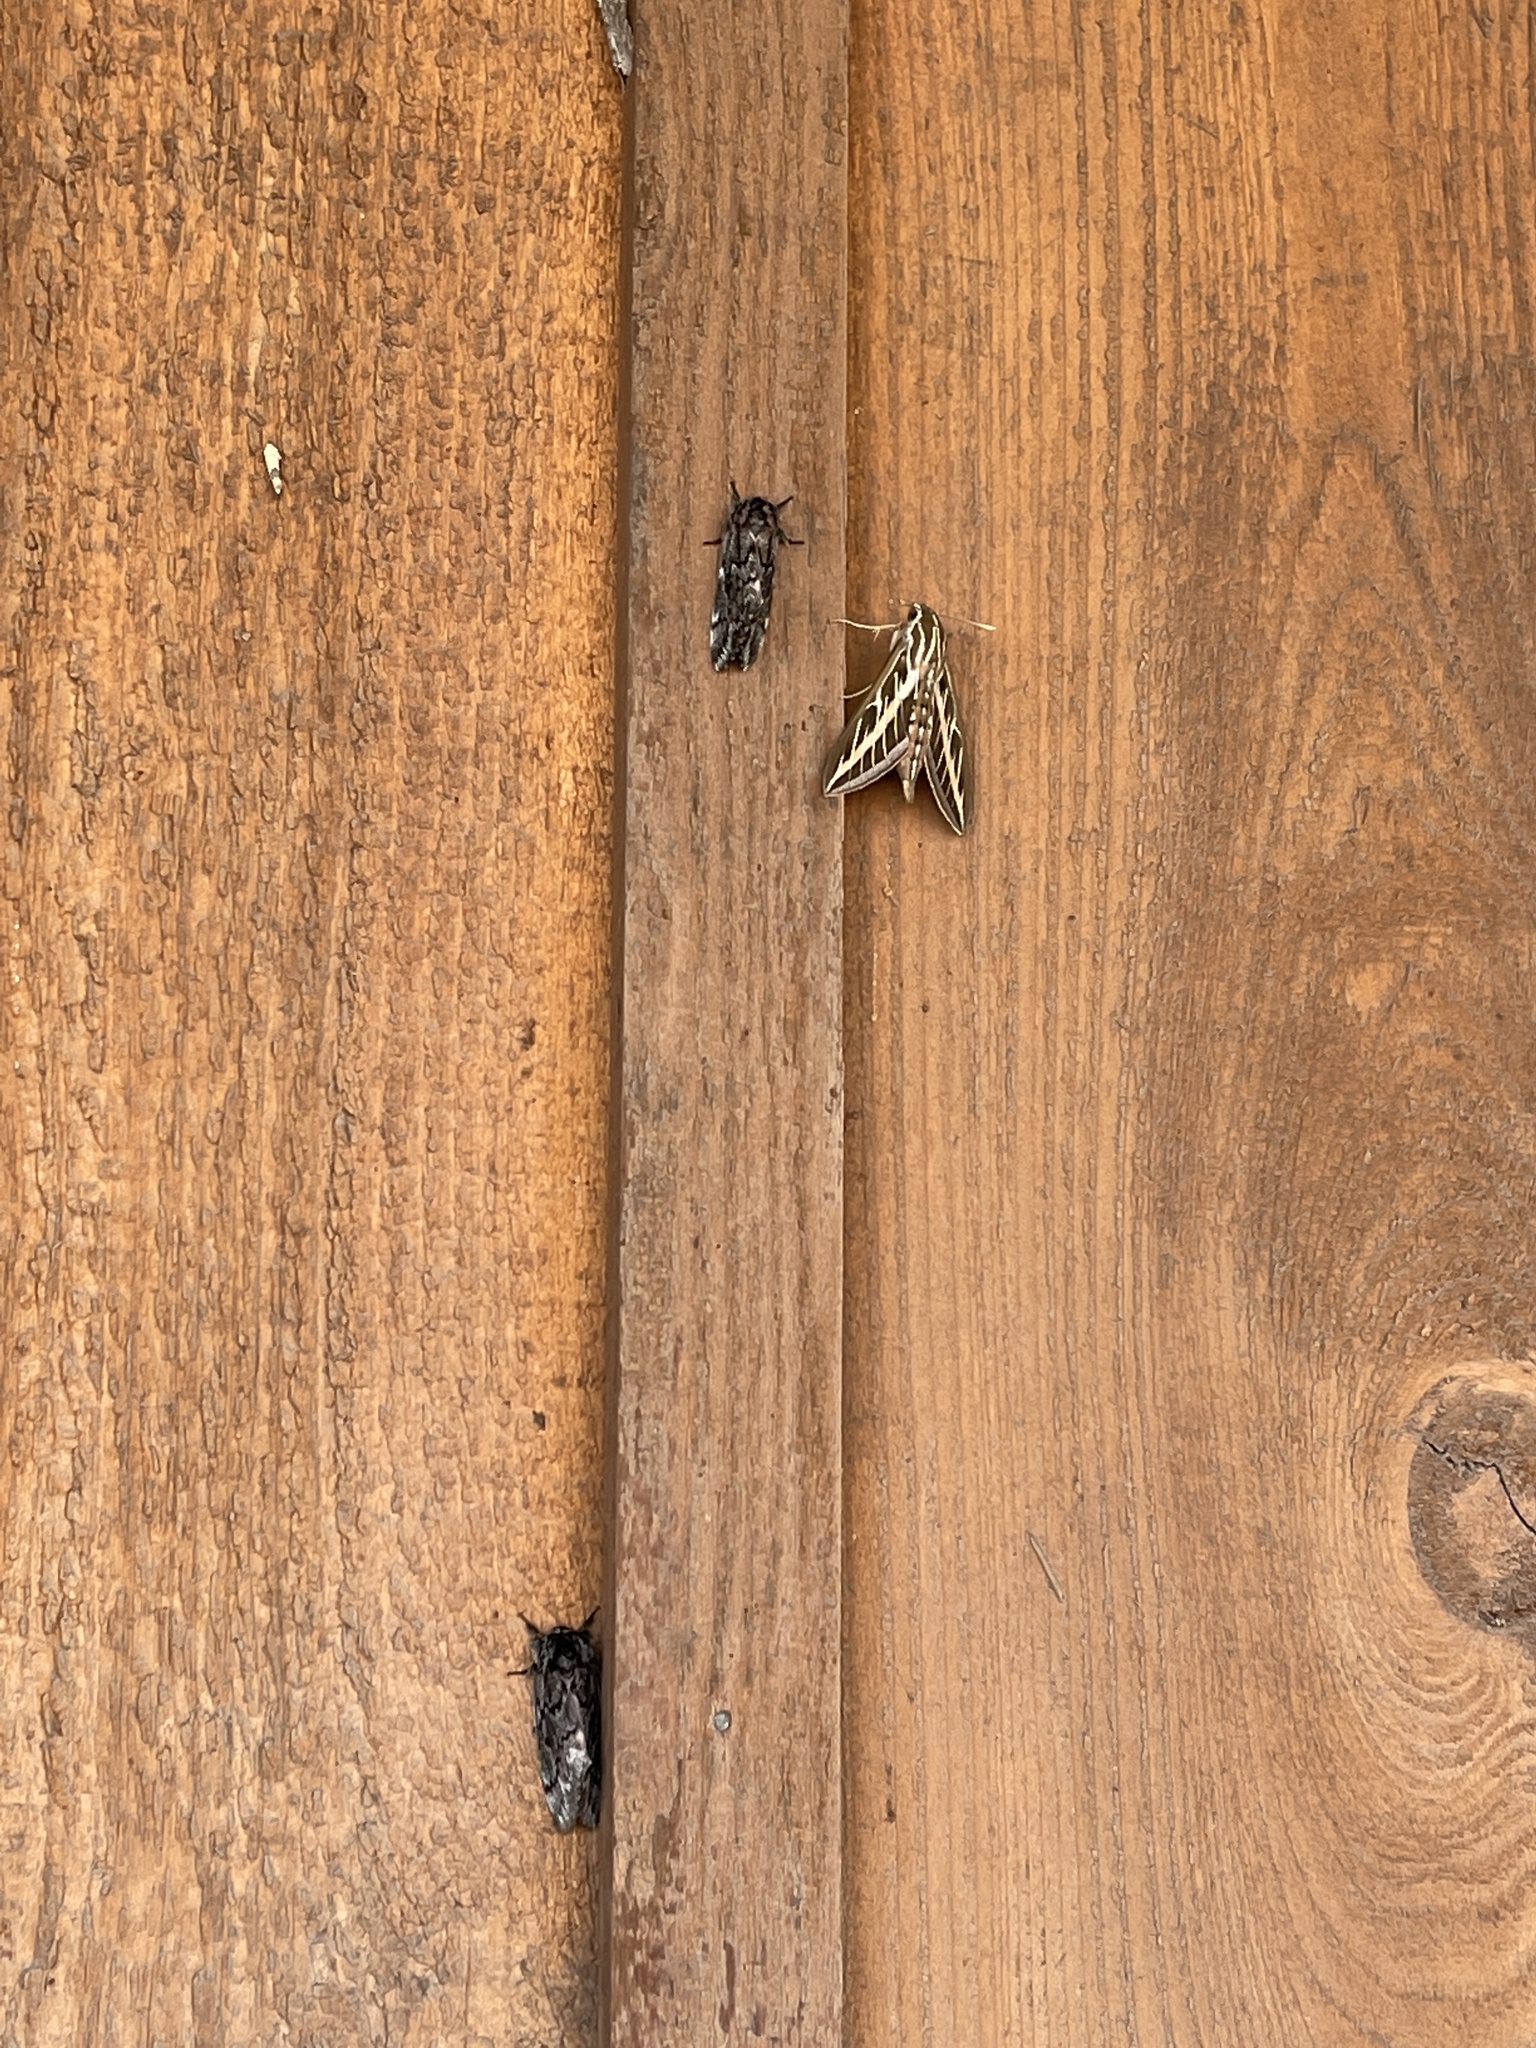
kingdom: Animalia
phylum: Arthropoda
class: Insecta
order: Lepidoptera
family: Sphingidae
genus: Hyles
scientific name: Hyles lineata
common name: White-lined sphinx
